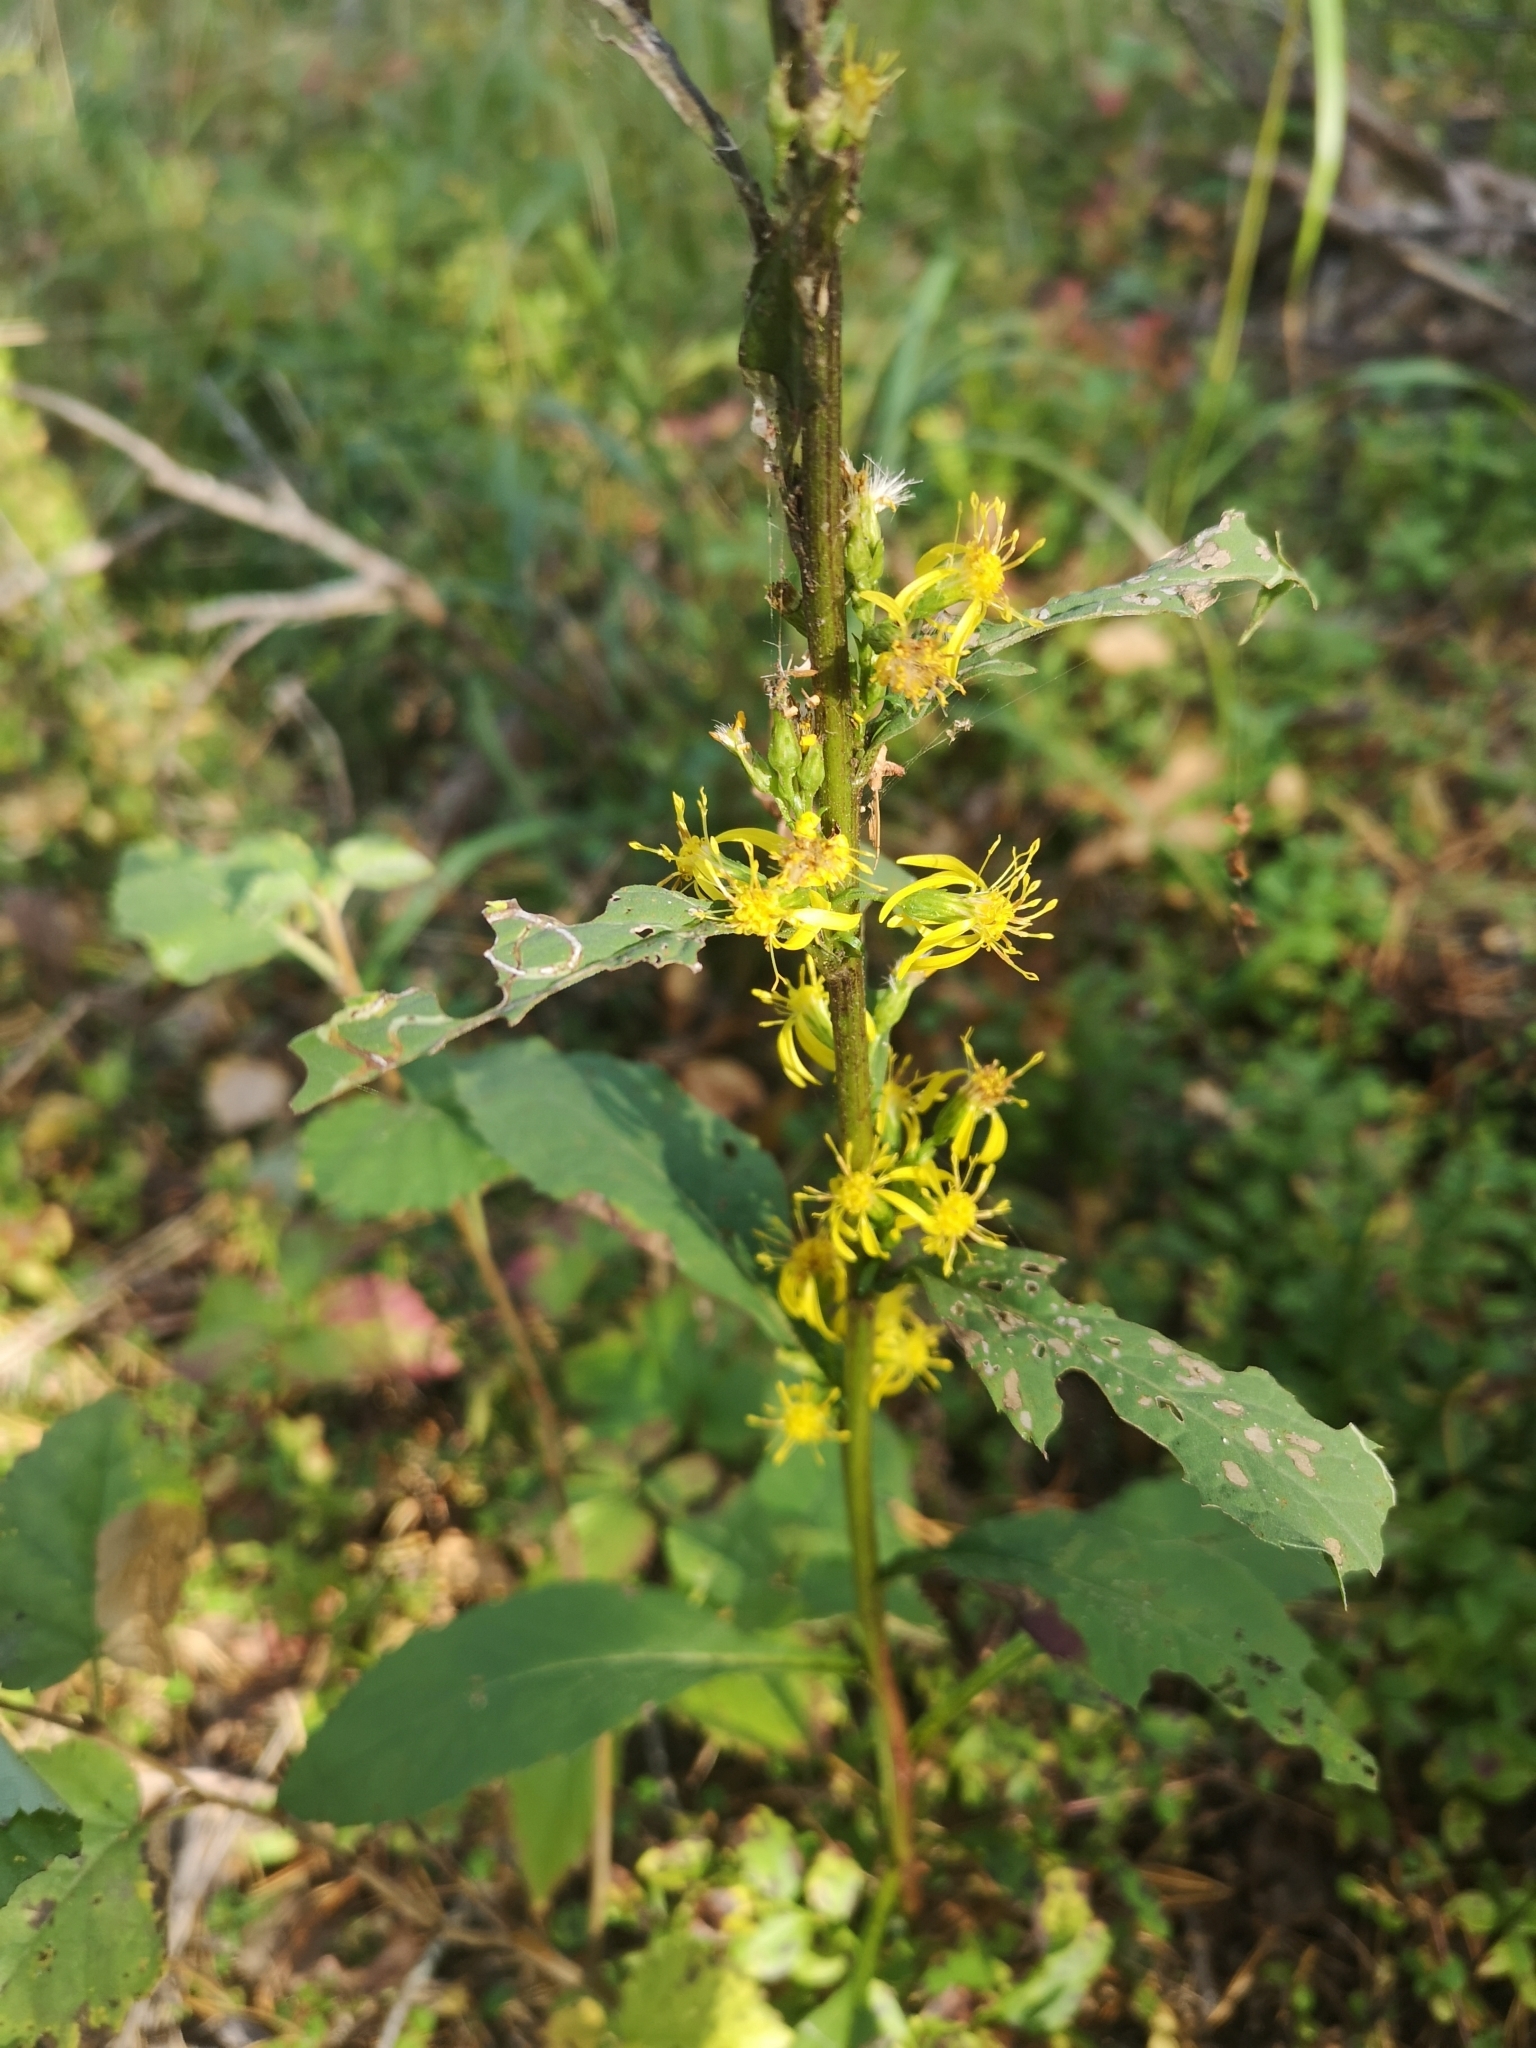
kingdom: Plantae
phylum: Tracheophyta
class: Magnoliopsida
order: Asterales
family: Asteraceae
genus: Solidago
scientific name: Solidago virgaurea
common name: Goldenrod
